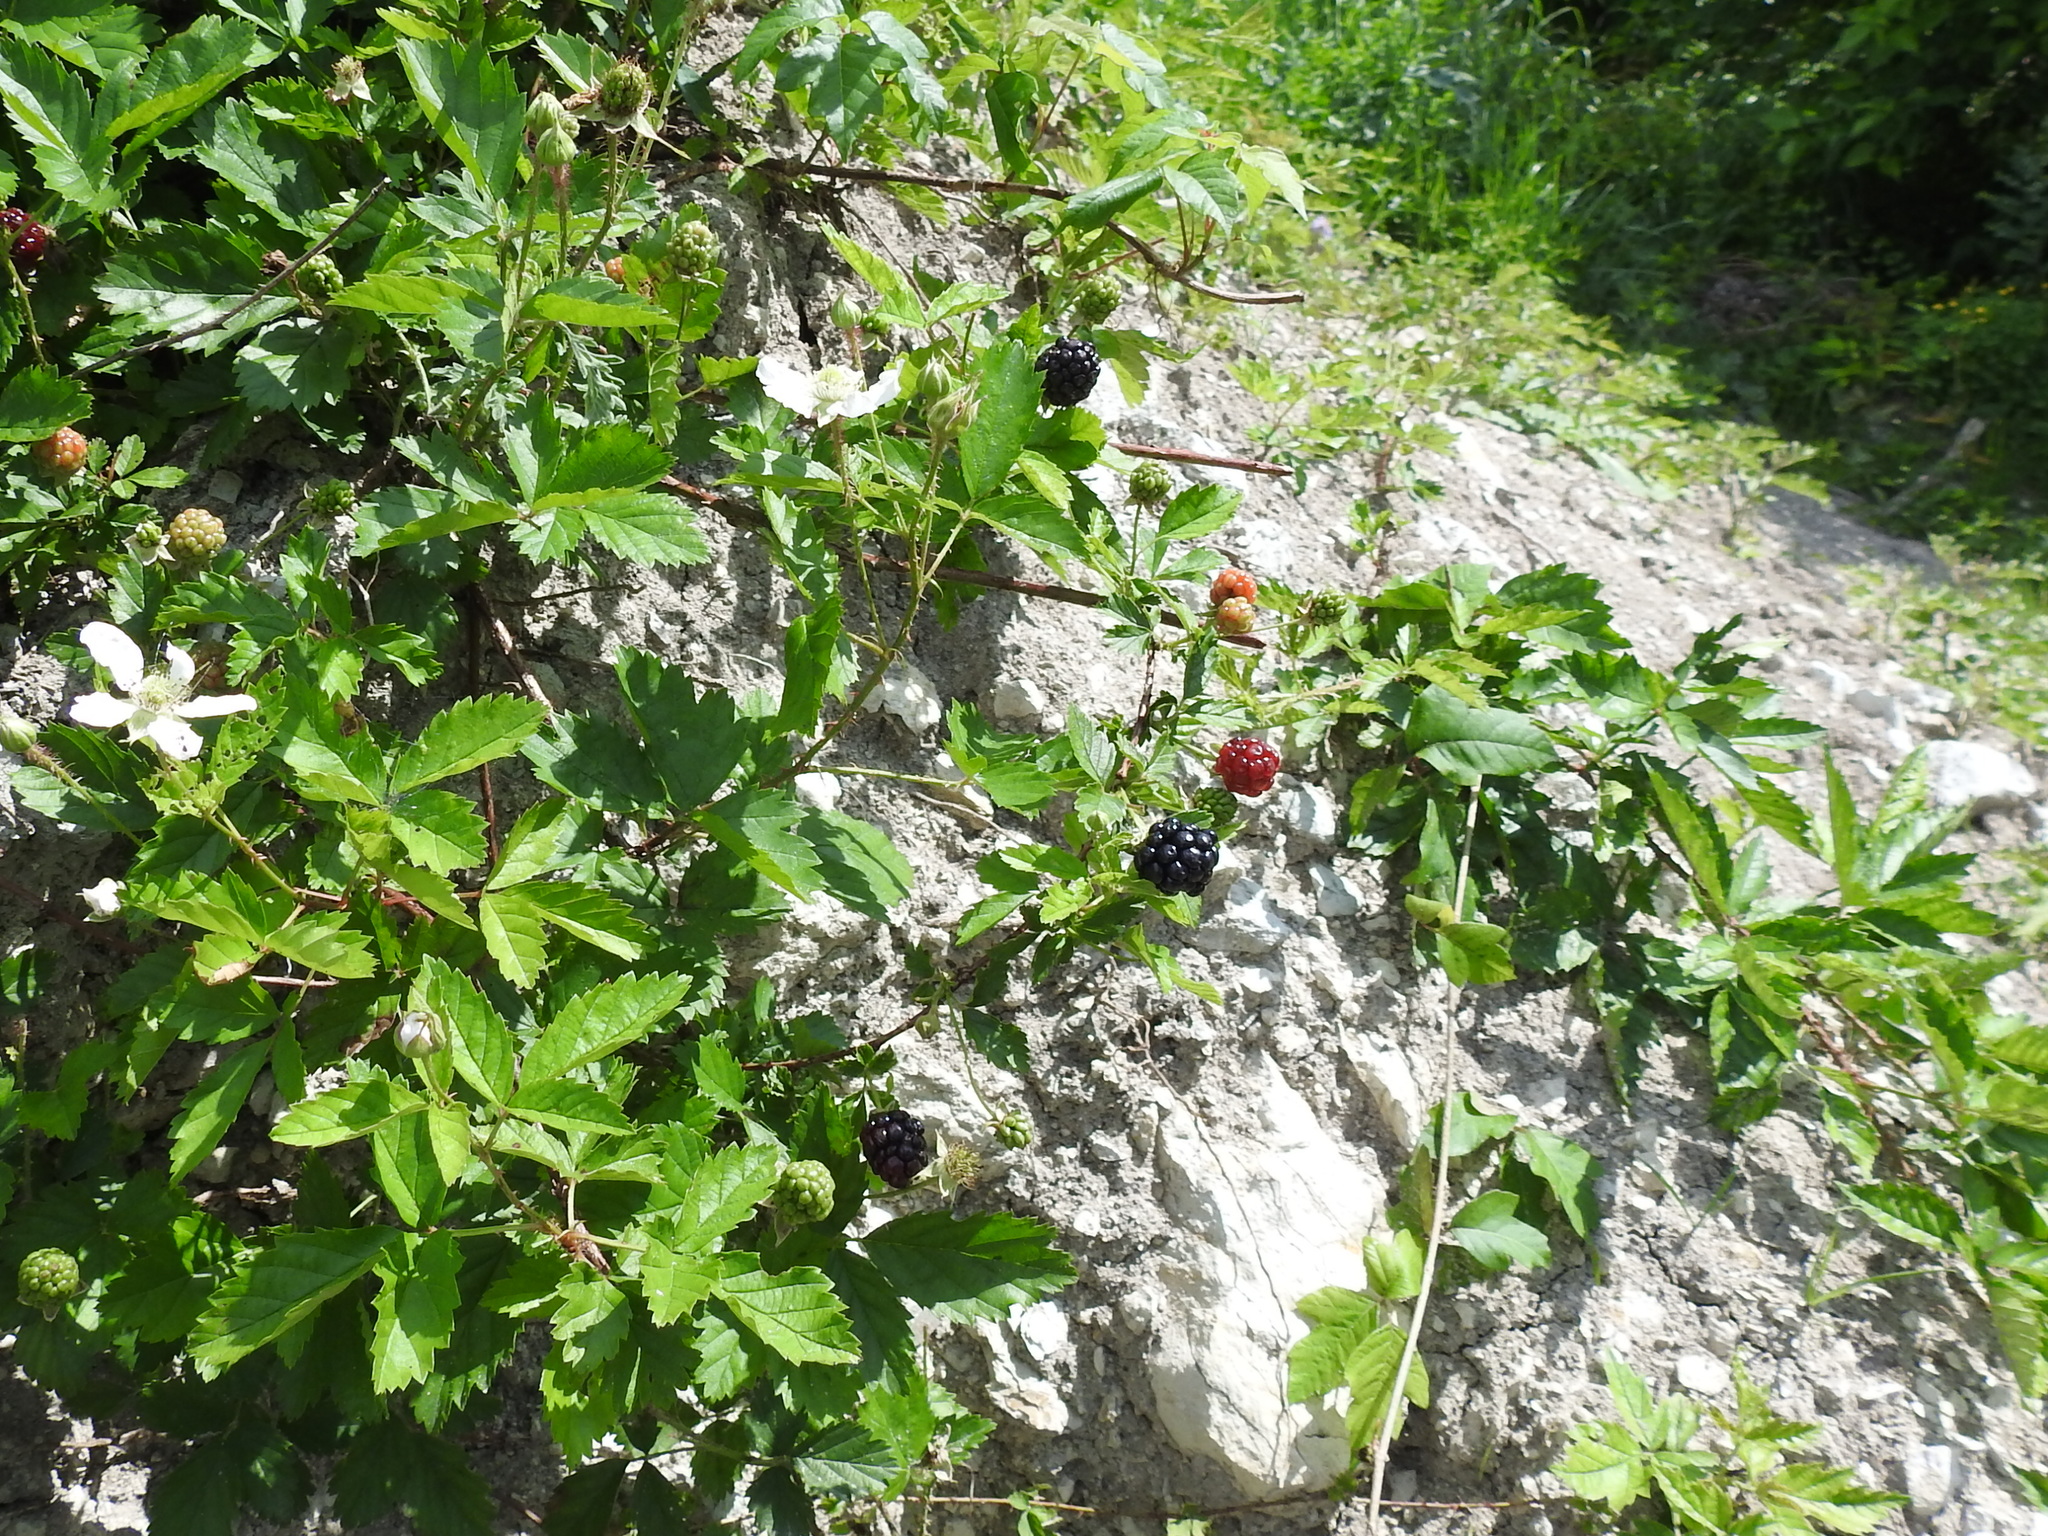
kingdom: Plantae
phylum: Tracheophyta
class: Magnoliopsida
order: Rosales
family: Rosaceae
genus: Rubus
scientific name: Rubus trivialis
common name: Southern dewberry
